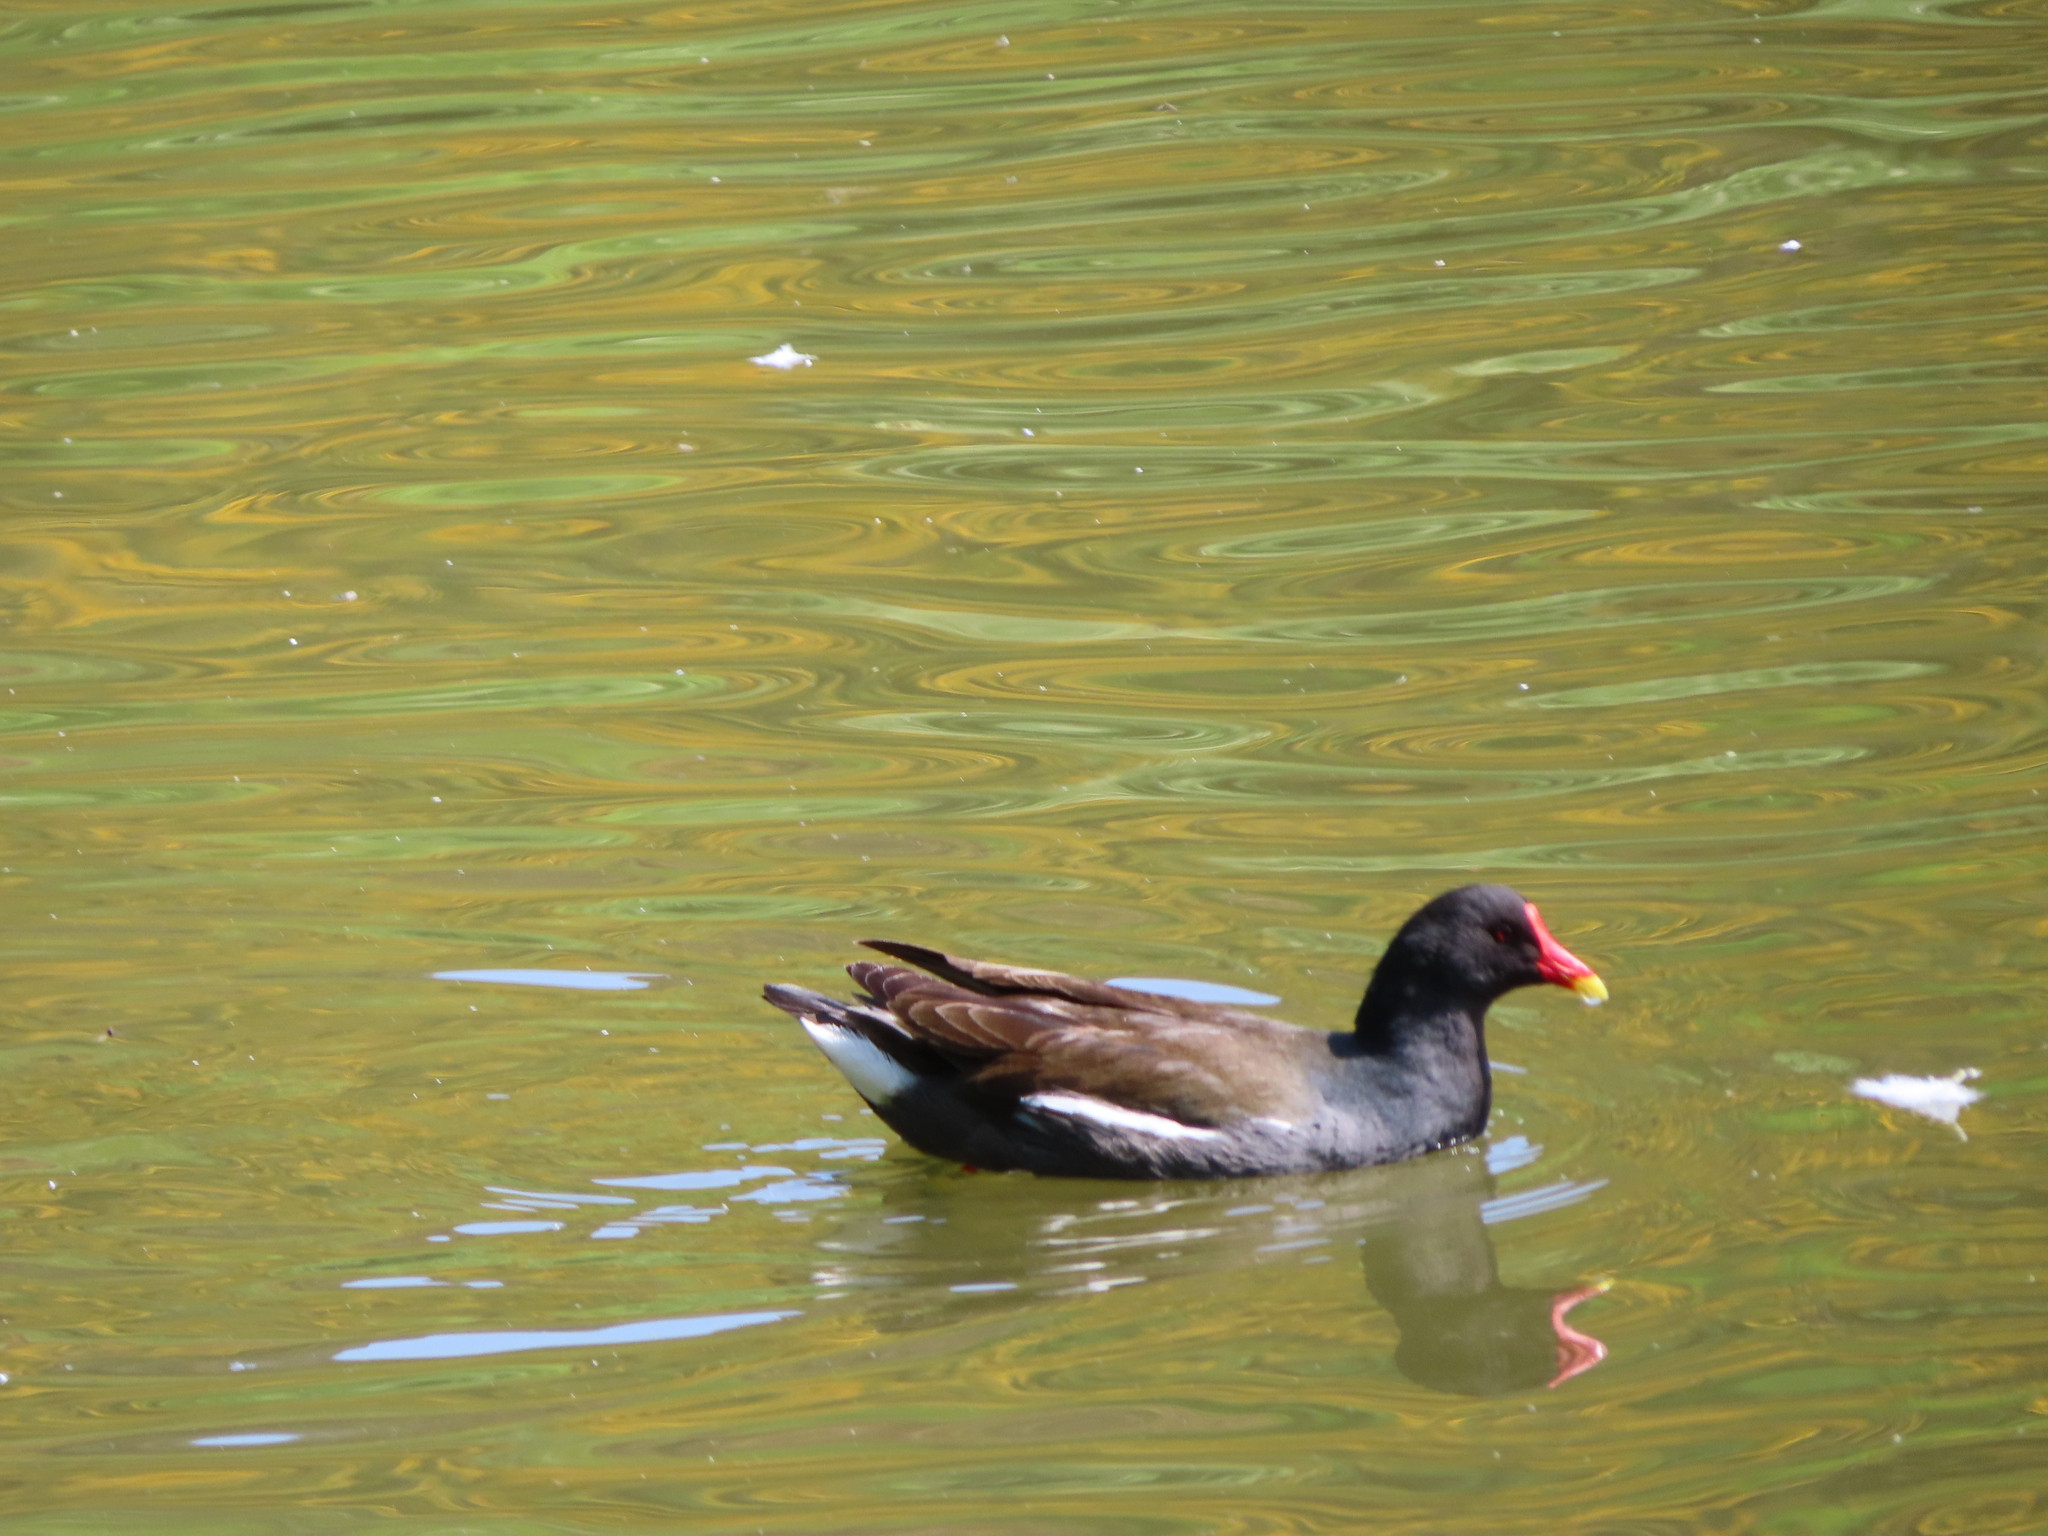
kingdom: Animalia
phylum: Chordata
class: Aves
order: Gruiformes
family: Rallidae
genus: Gallinula
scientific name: Gallinula chloropus
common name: Common moorhen
